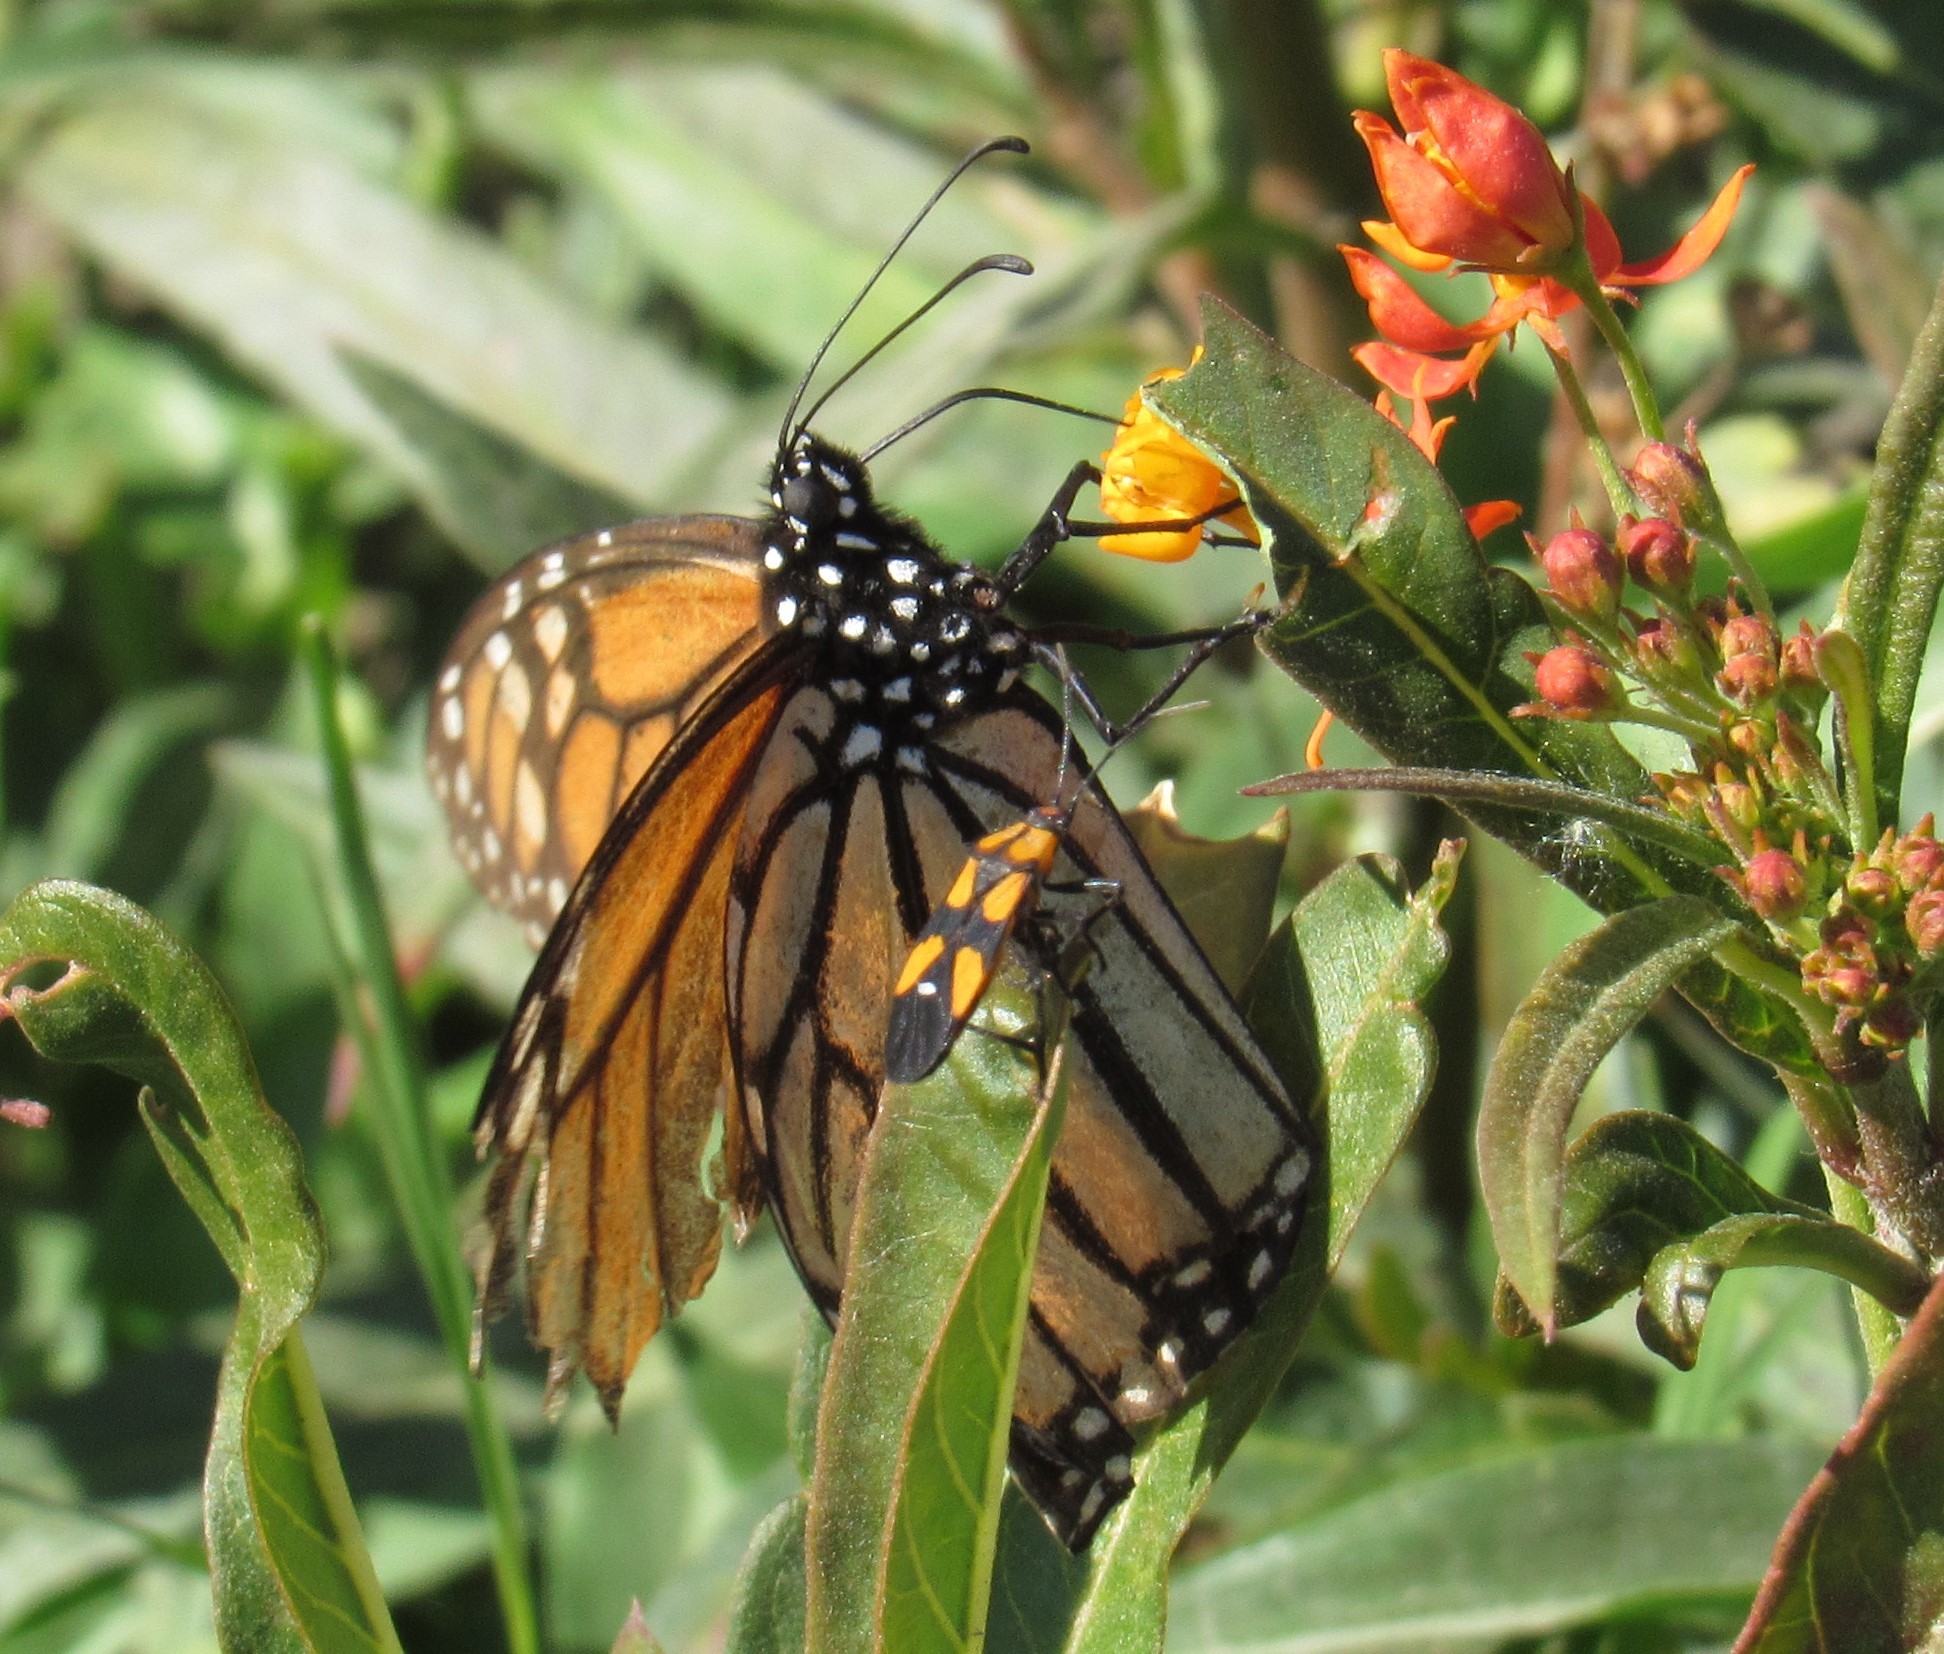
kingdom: Animalia
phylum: Arthropoda
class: Insecta
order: Hemiptera
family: Lygaeidae
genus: Oncopeltus
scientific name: Oncopeltus sexmaculatus
